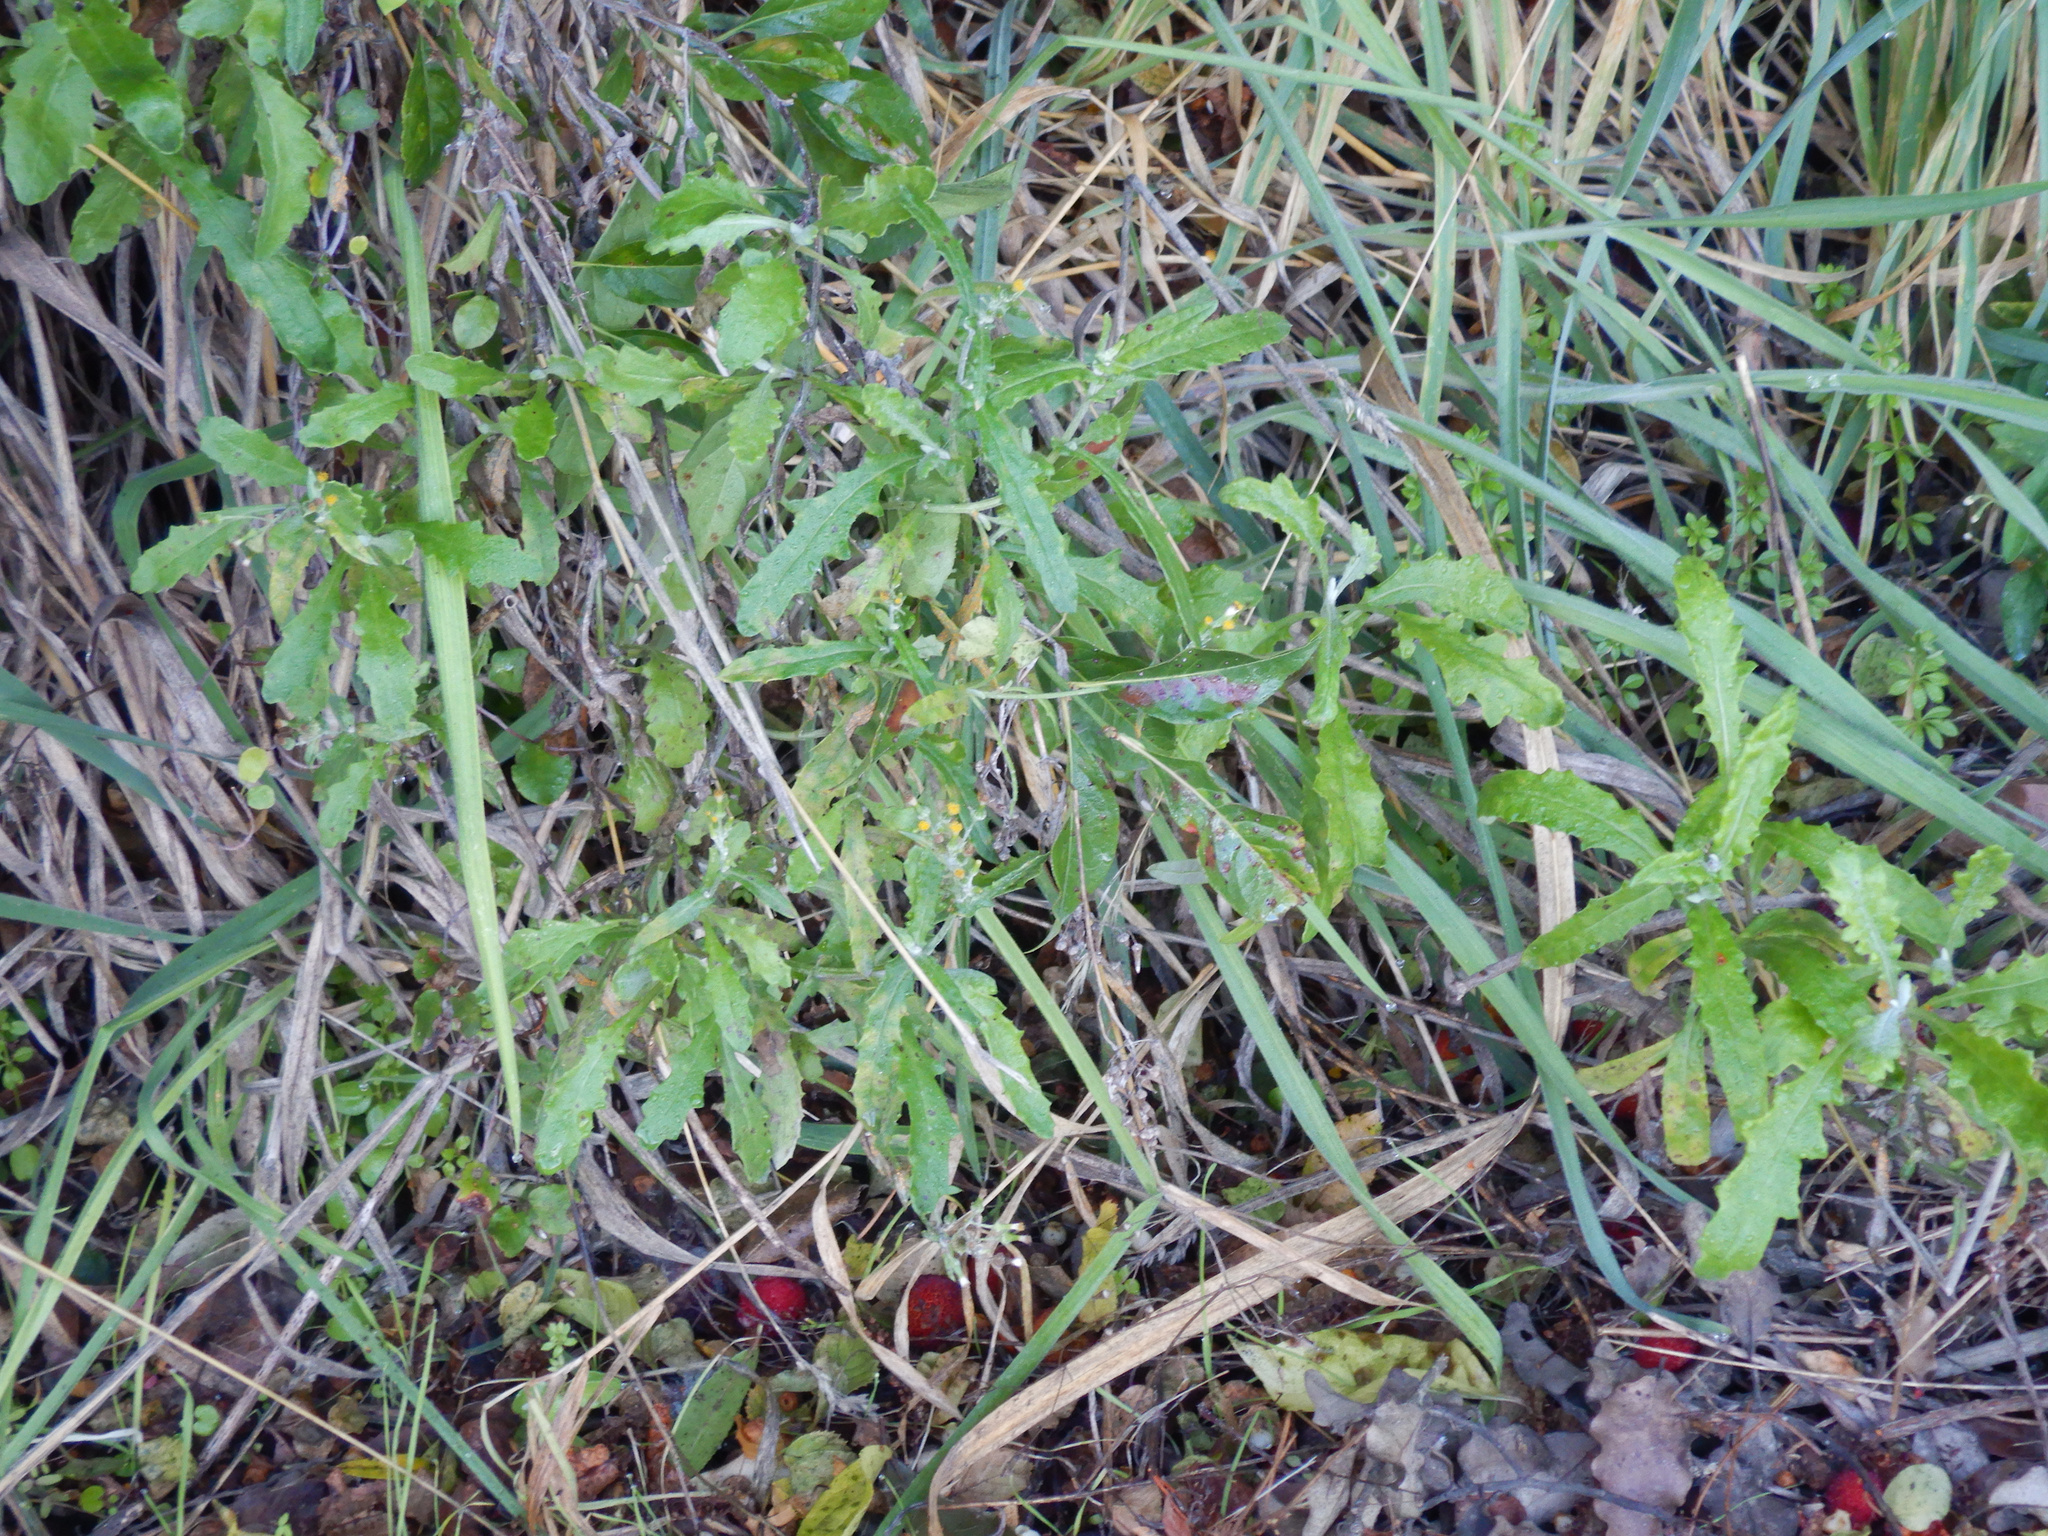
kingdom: Plantae
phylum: Tracheophyta
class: Magnoliopsida
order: Asterales
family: Asteraceae
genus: Senecio
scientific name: Senecio glomeratus
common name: Cutleaf burnweed
